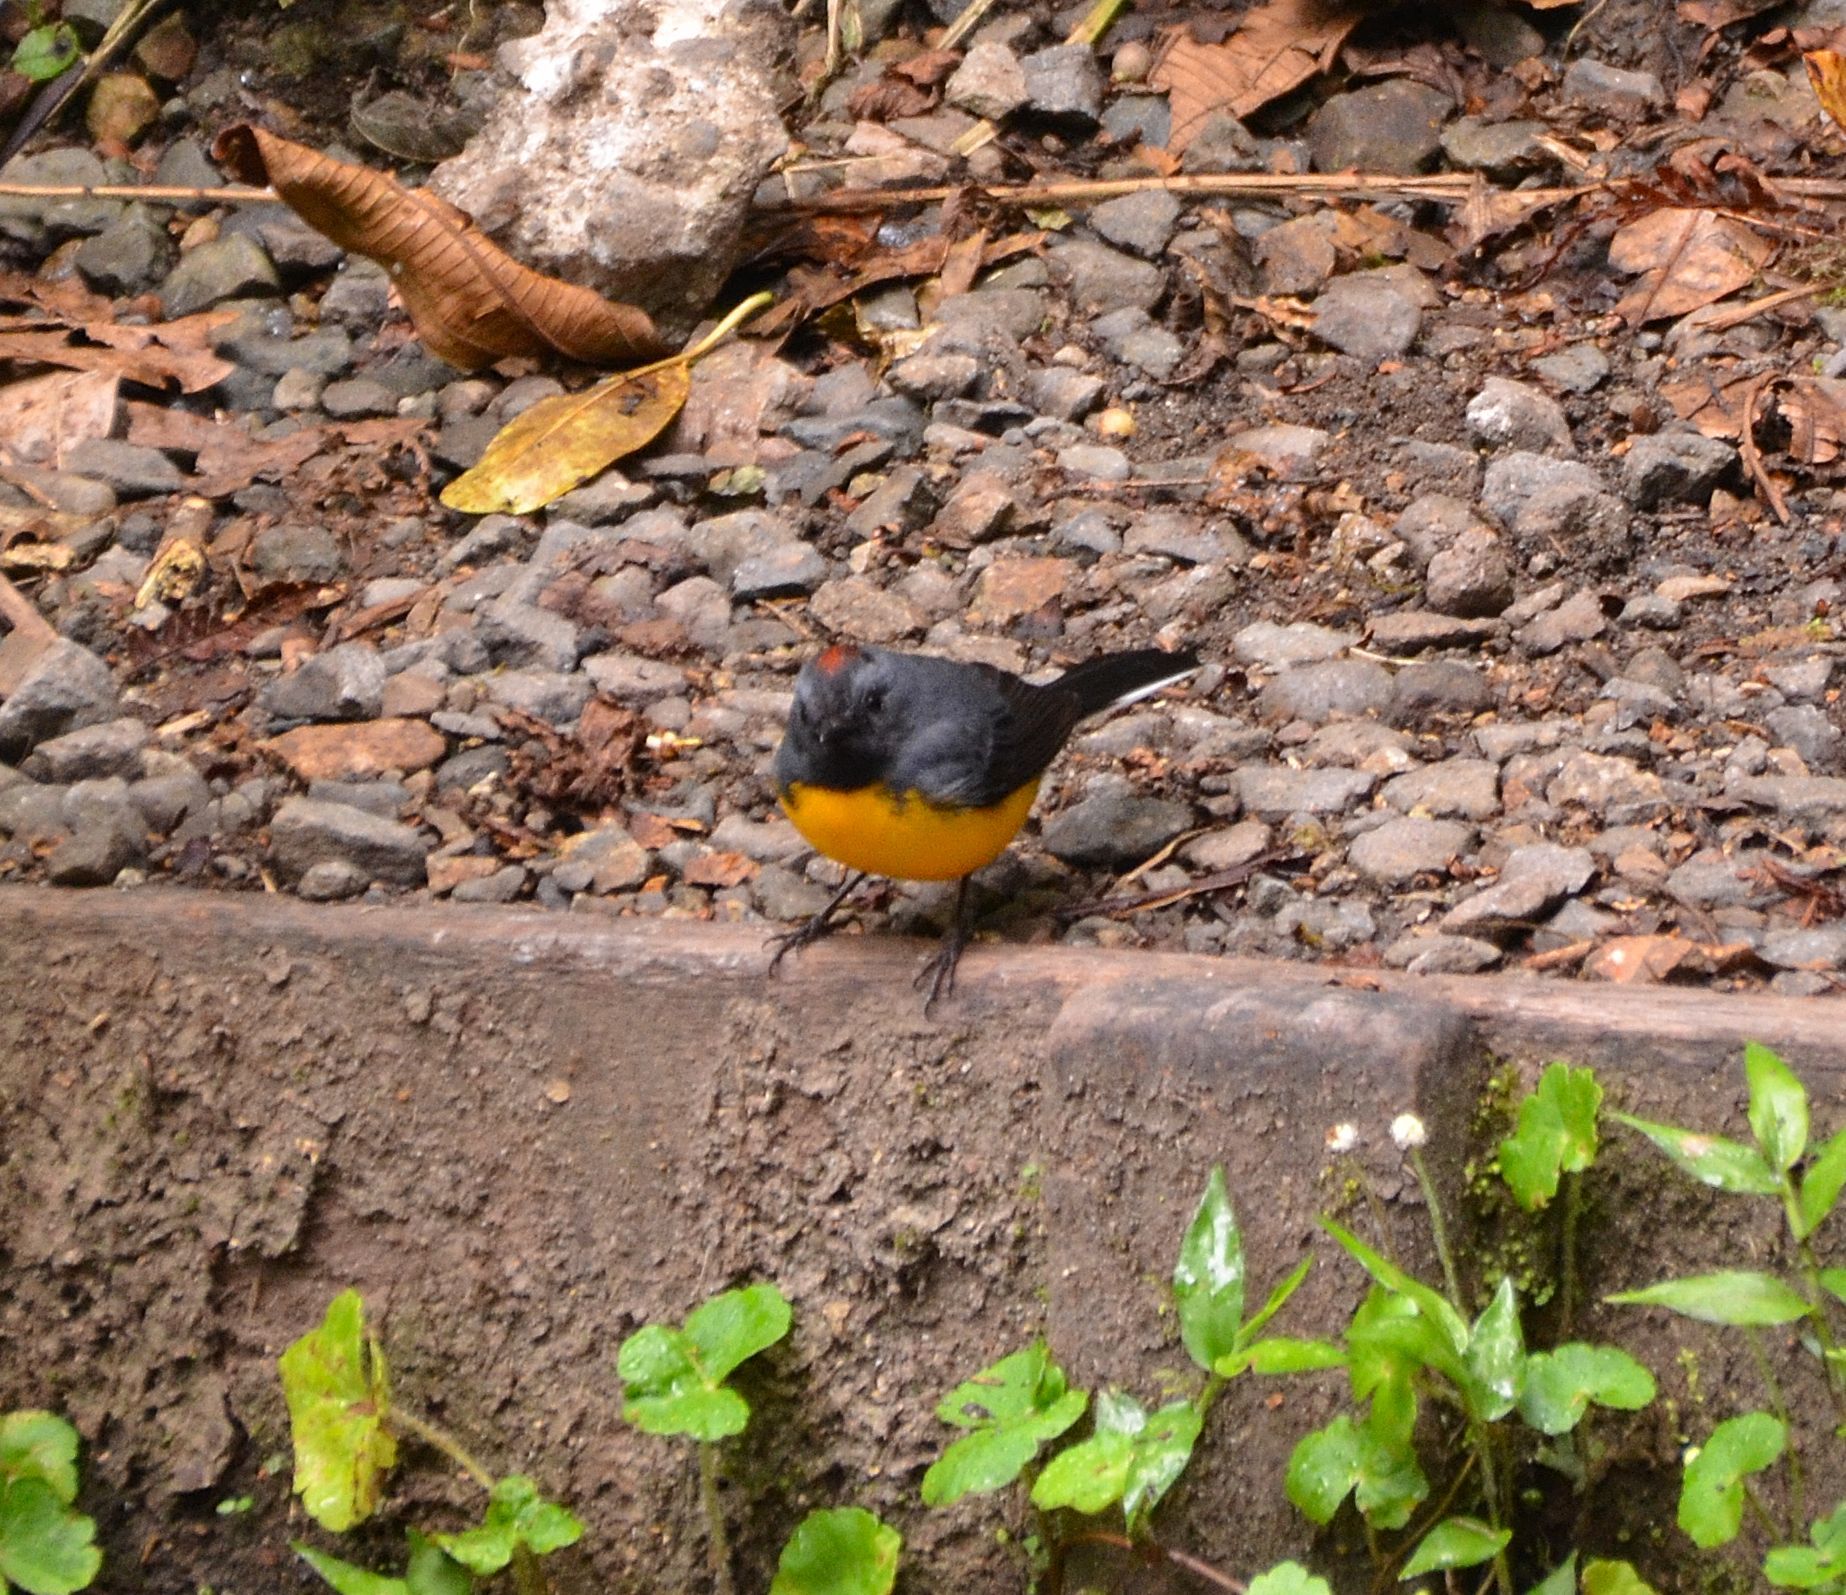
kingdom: Animalia
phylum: Chordata
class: Aves
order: Passeriformes
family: Parulidae
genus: Myioborus
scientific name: Myioborus miniatus
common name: Slate-throated redstart
